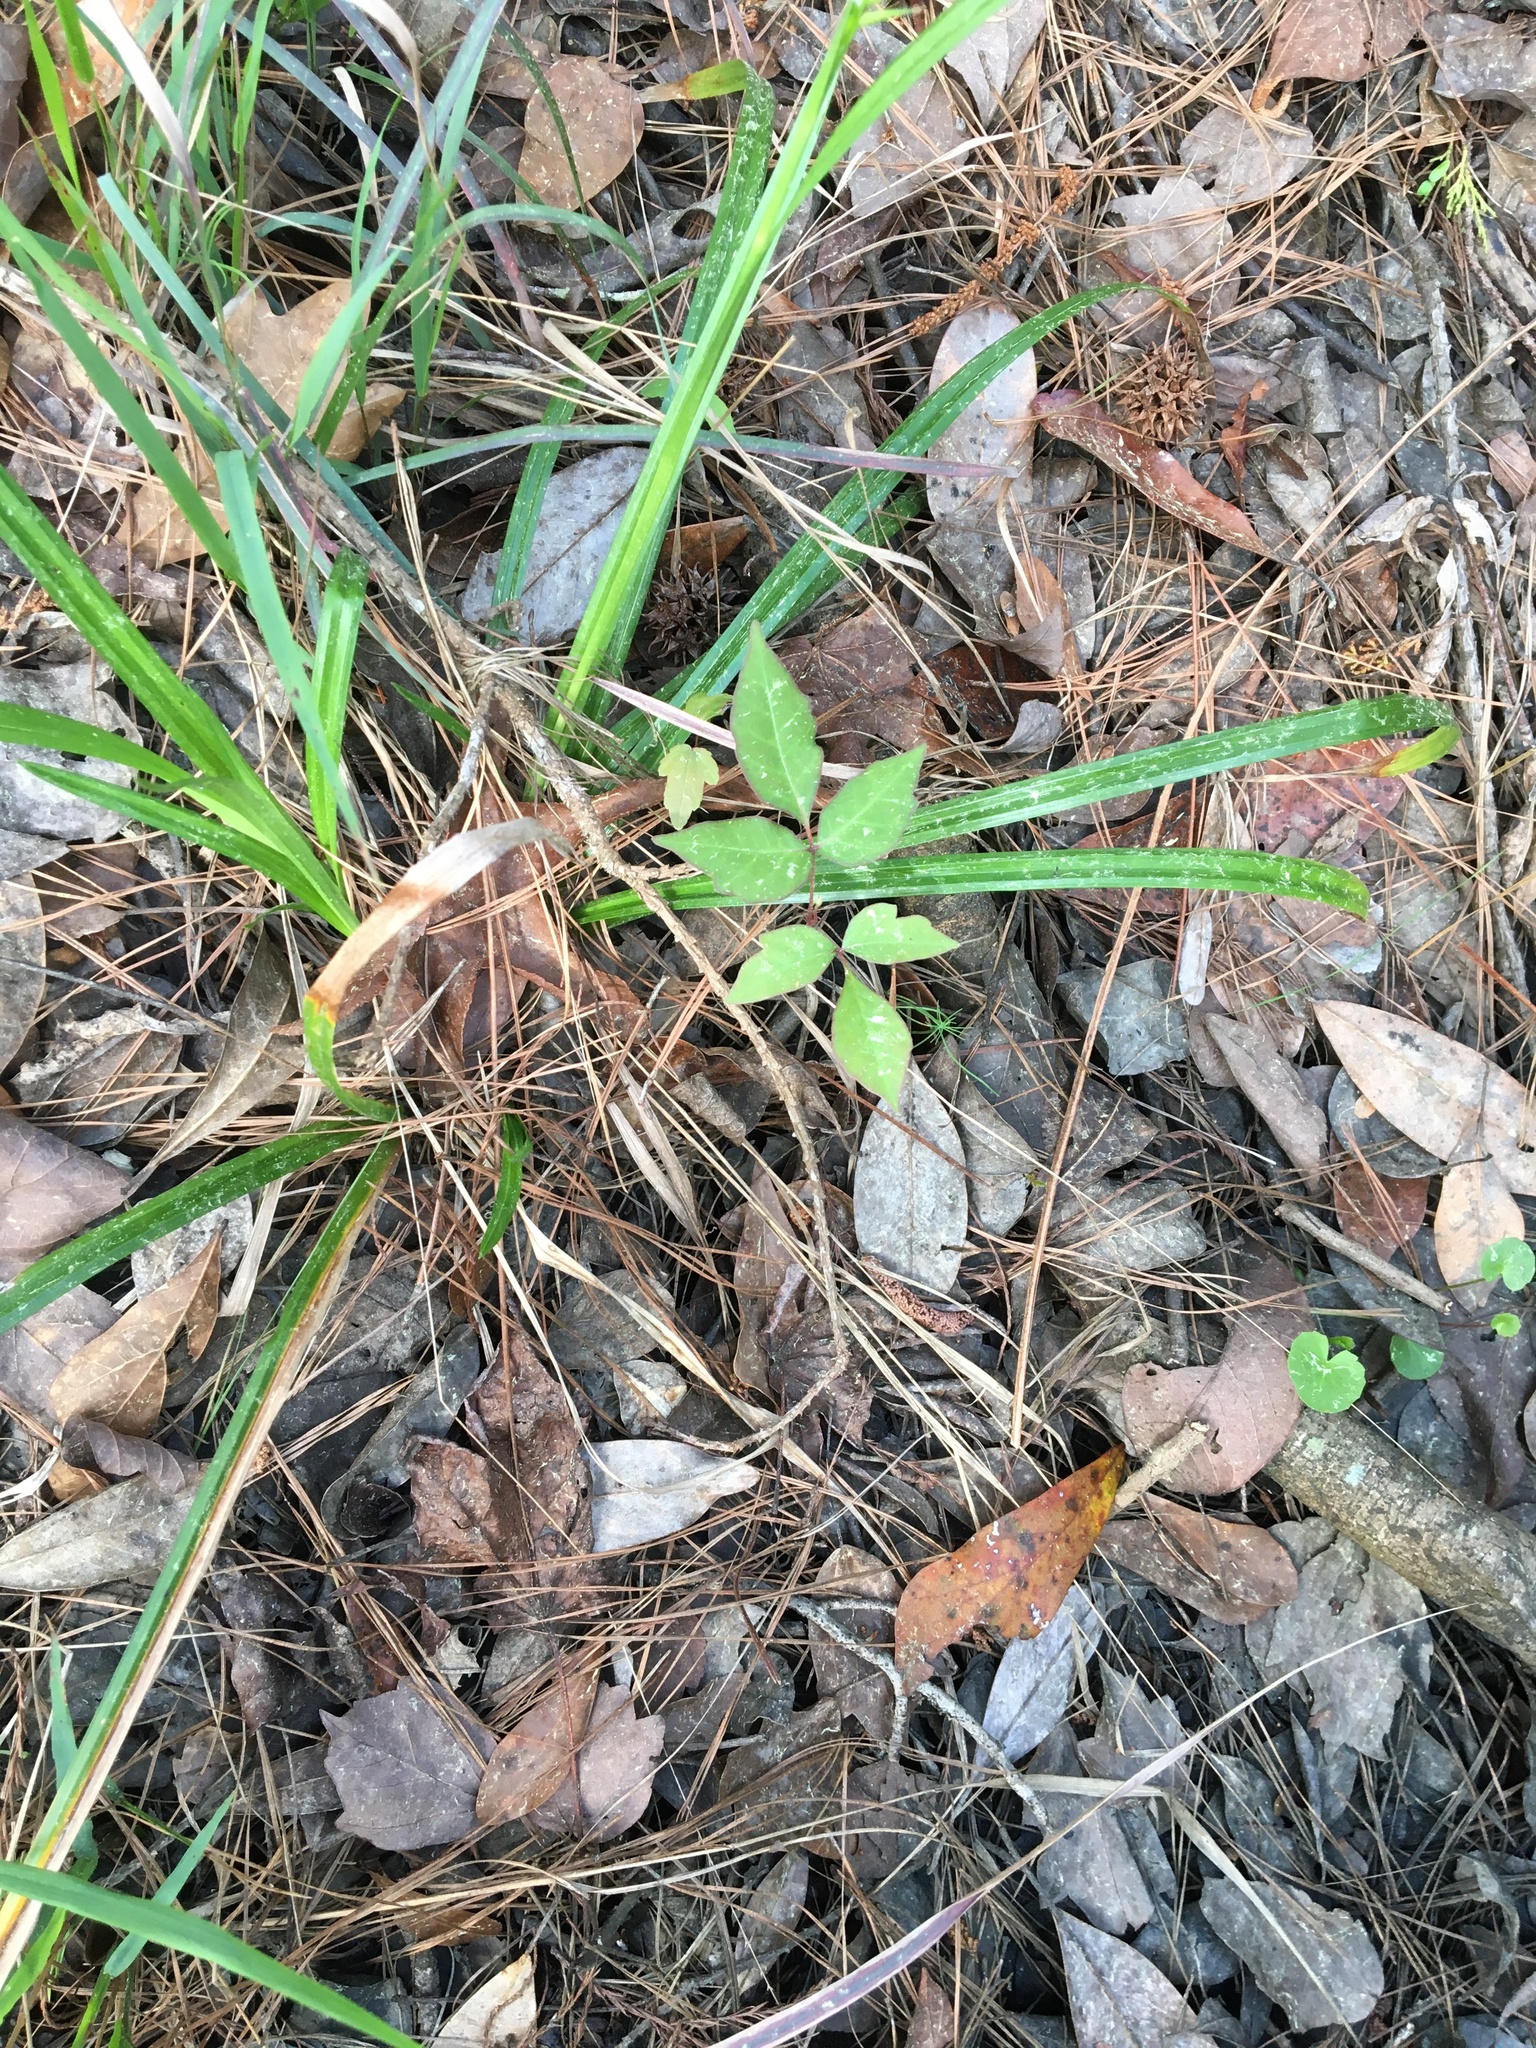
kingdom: Plantae
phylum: Tracheophyta
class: Magnoliopsida
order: Sapindales
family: Anacardiaceae
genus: Toxicodendron
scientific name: Toxicodendron radicans
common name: Poison ivy
